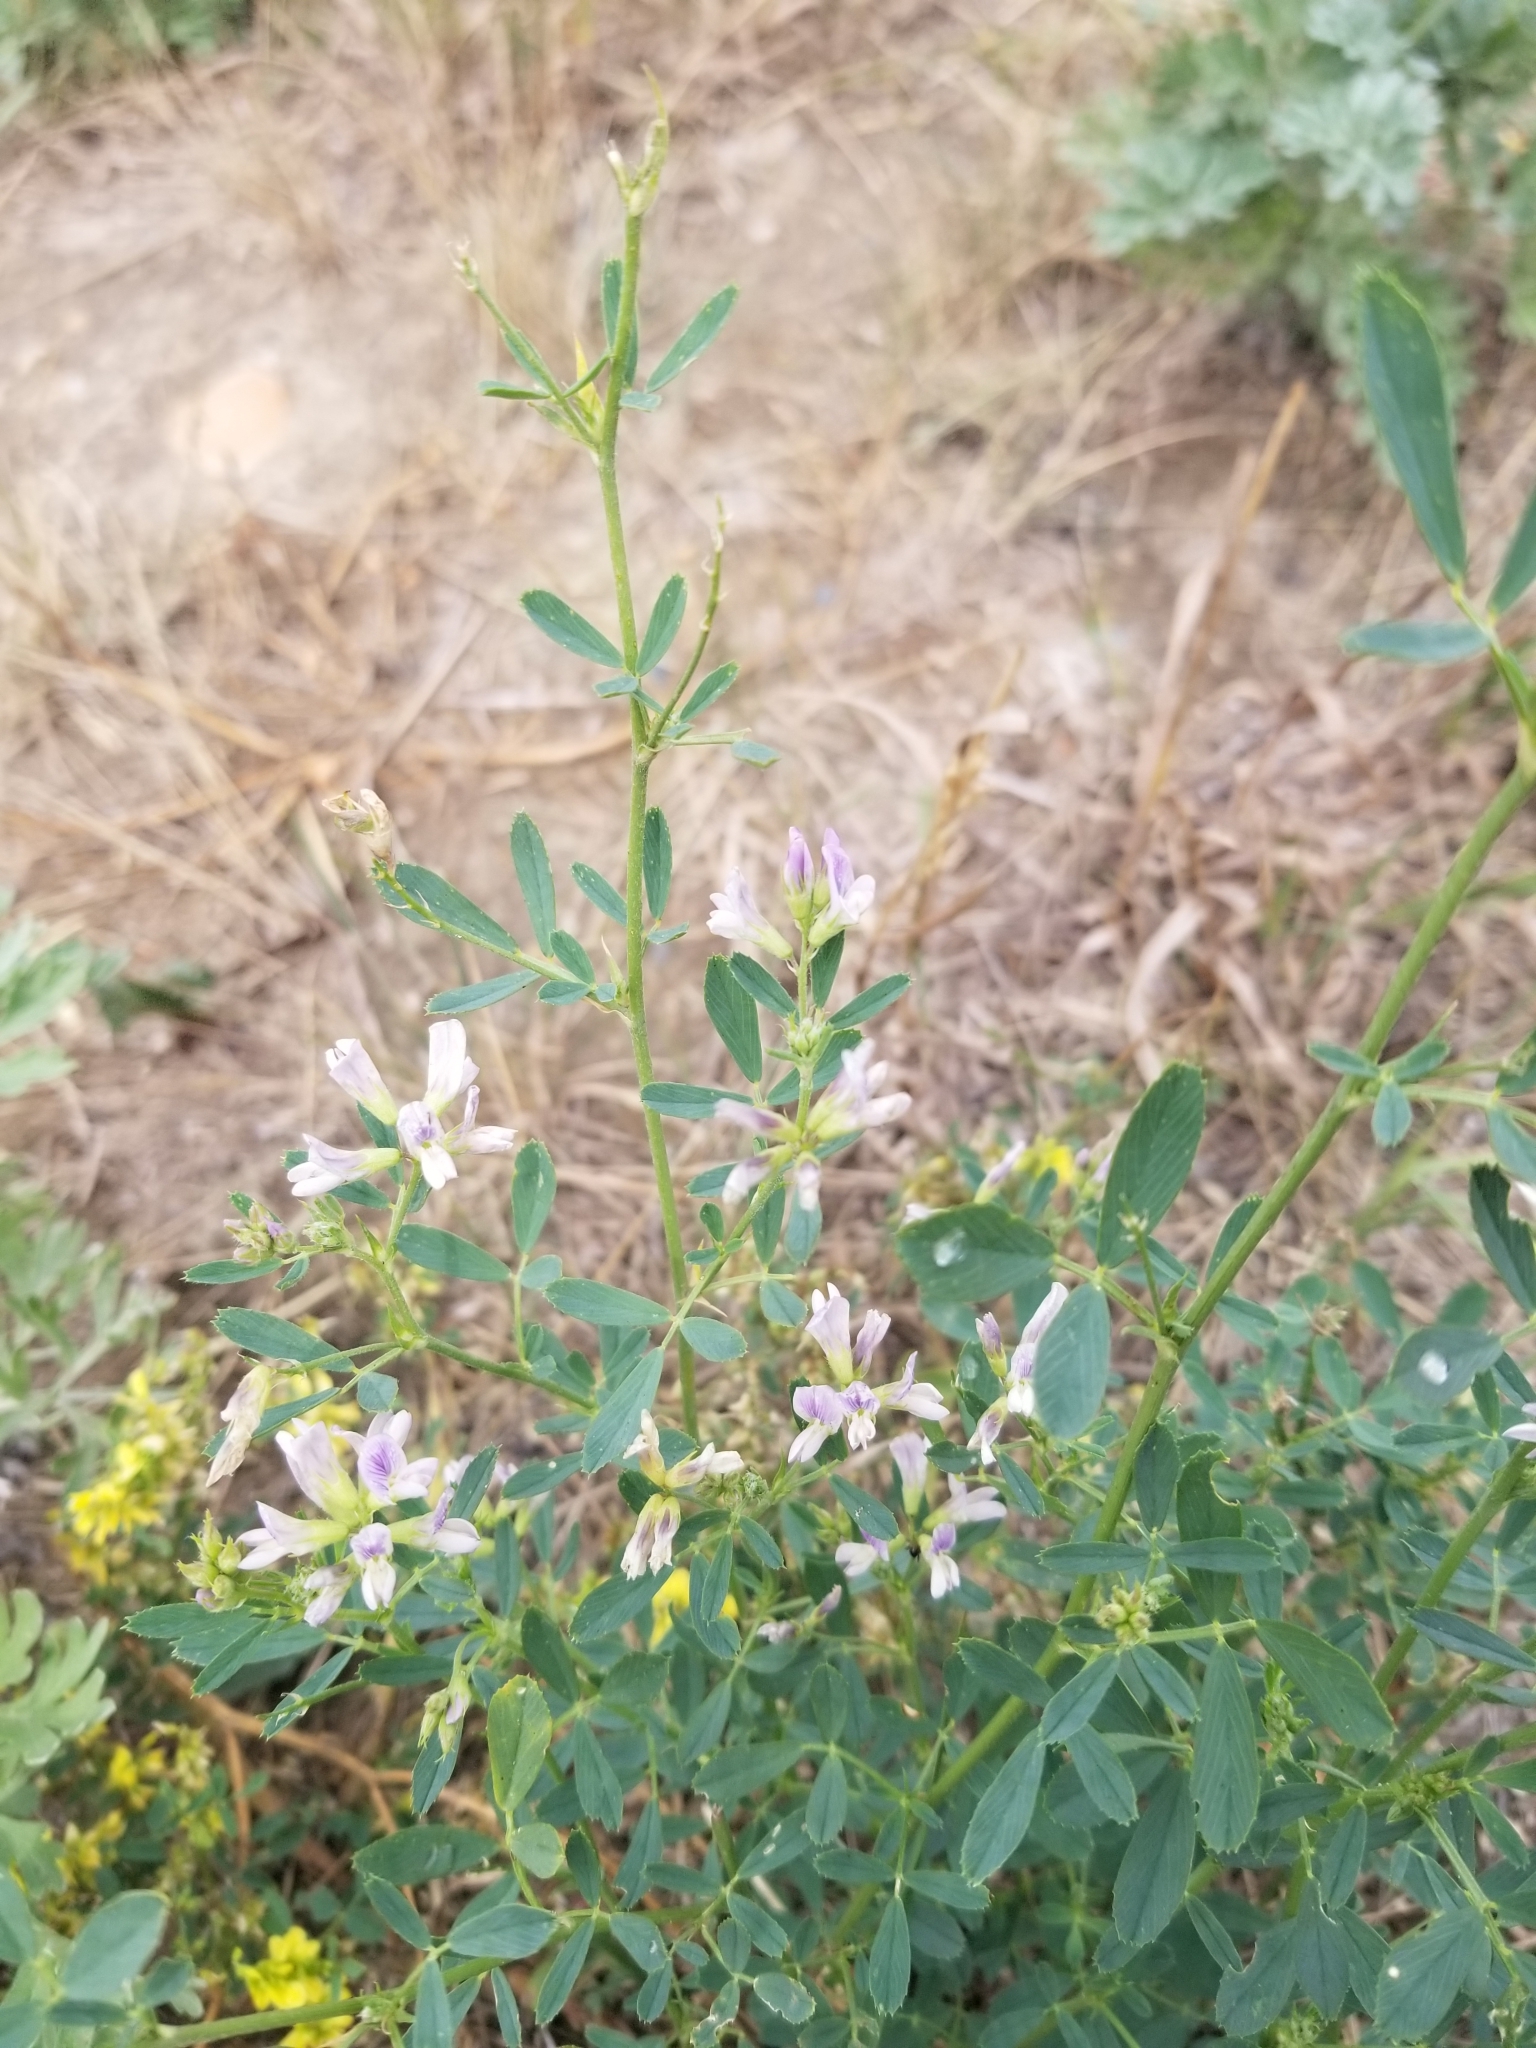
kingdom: Plantae
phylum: Tracheophyta
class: Magnoliopsida
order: Fabales
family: Fabaceae
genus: Medicago
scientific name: Medicago sativa
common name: Alfalfa
